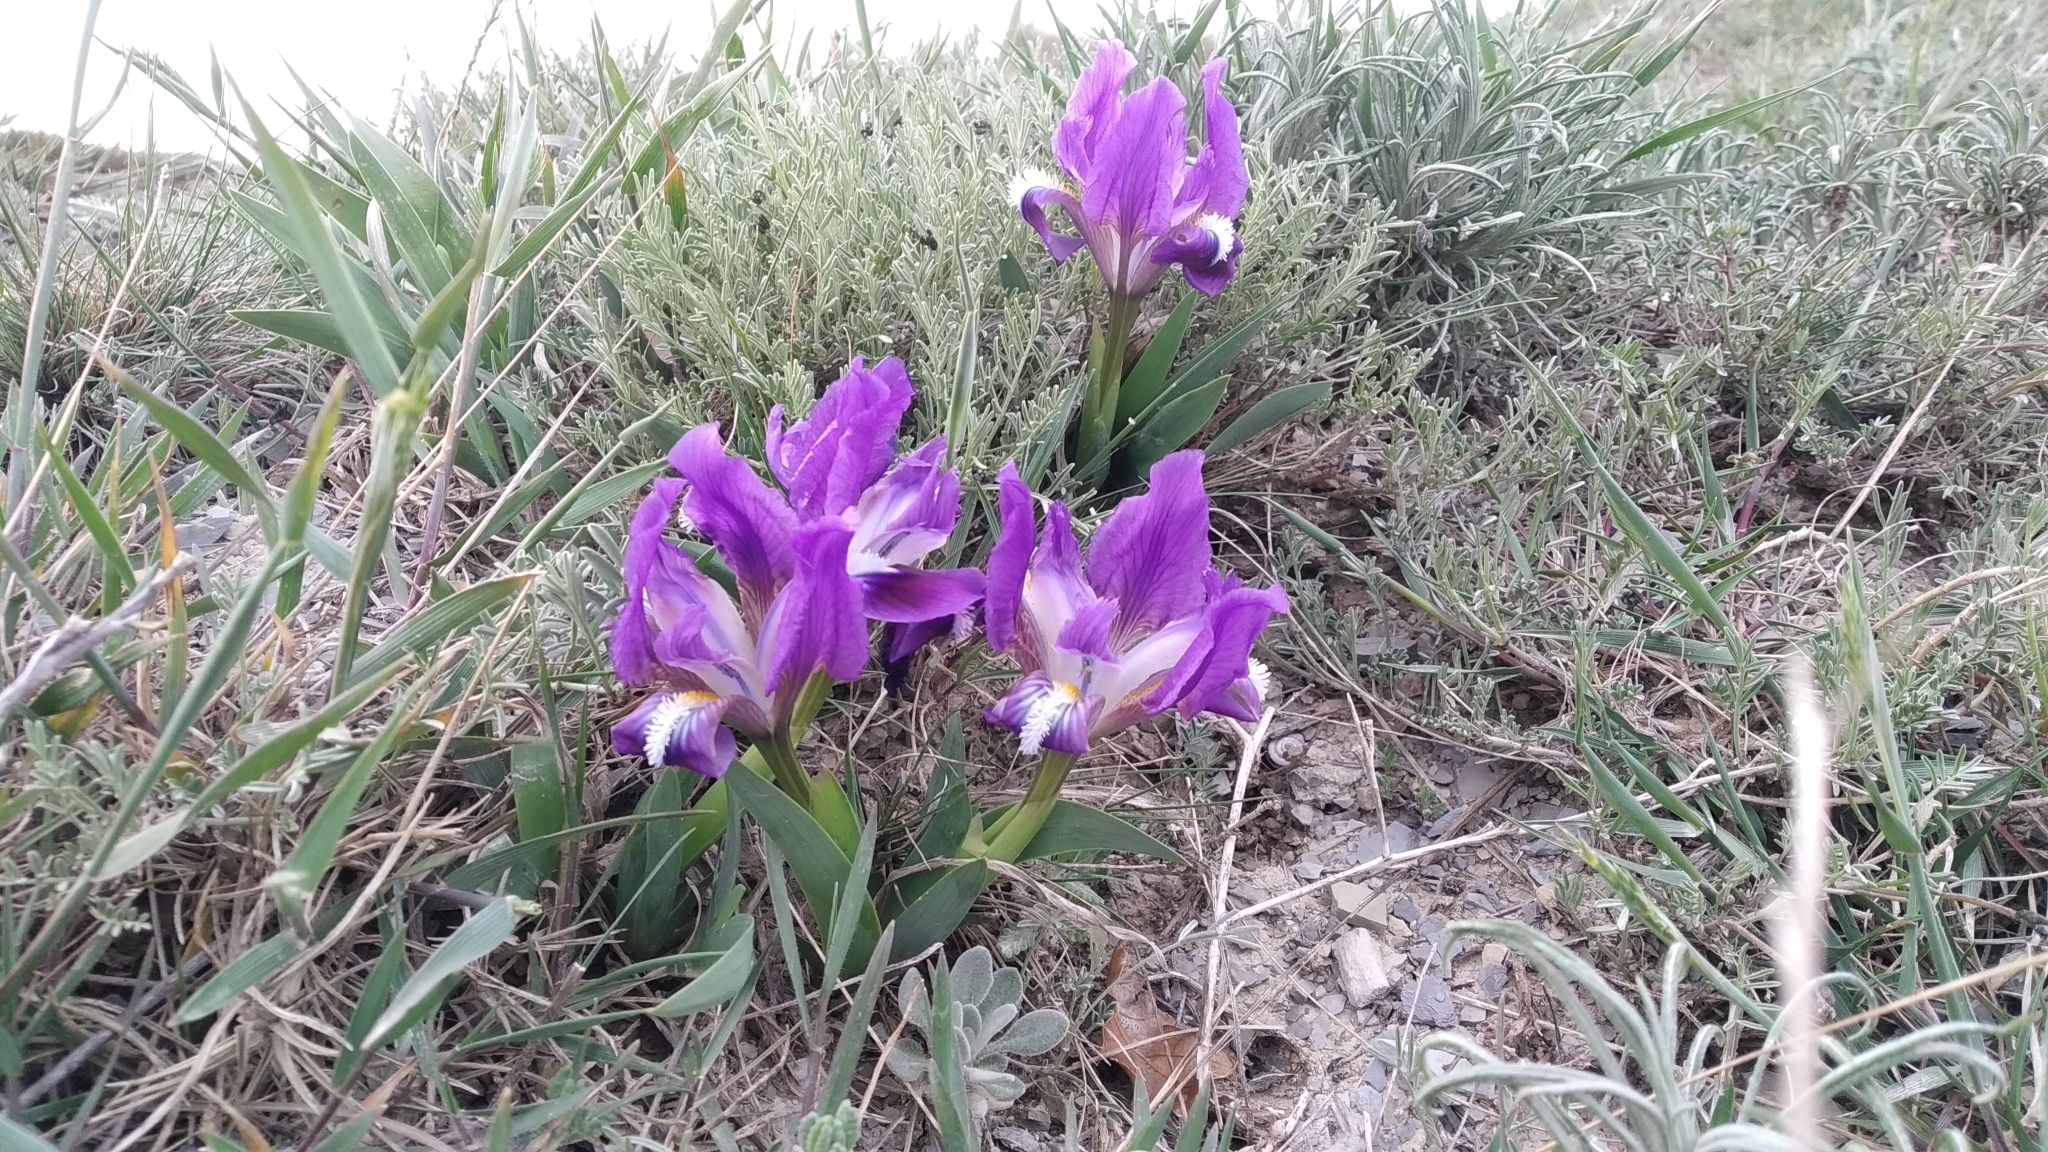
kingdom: Plantae
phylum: Tracheophyta
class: Liliopsida
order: Asparagales
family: Iridaceae
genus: Iris
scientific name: Iris pumila
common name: Dwarf iris
